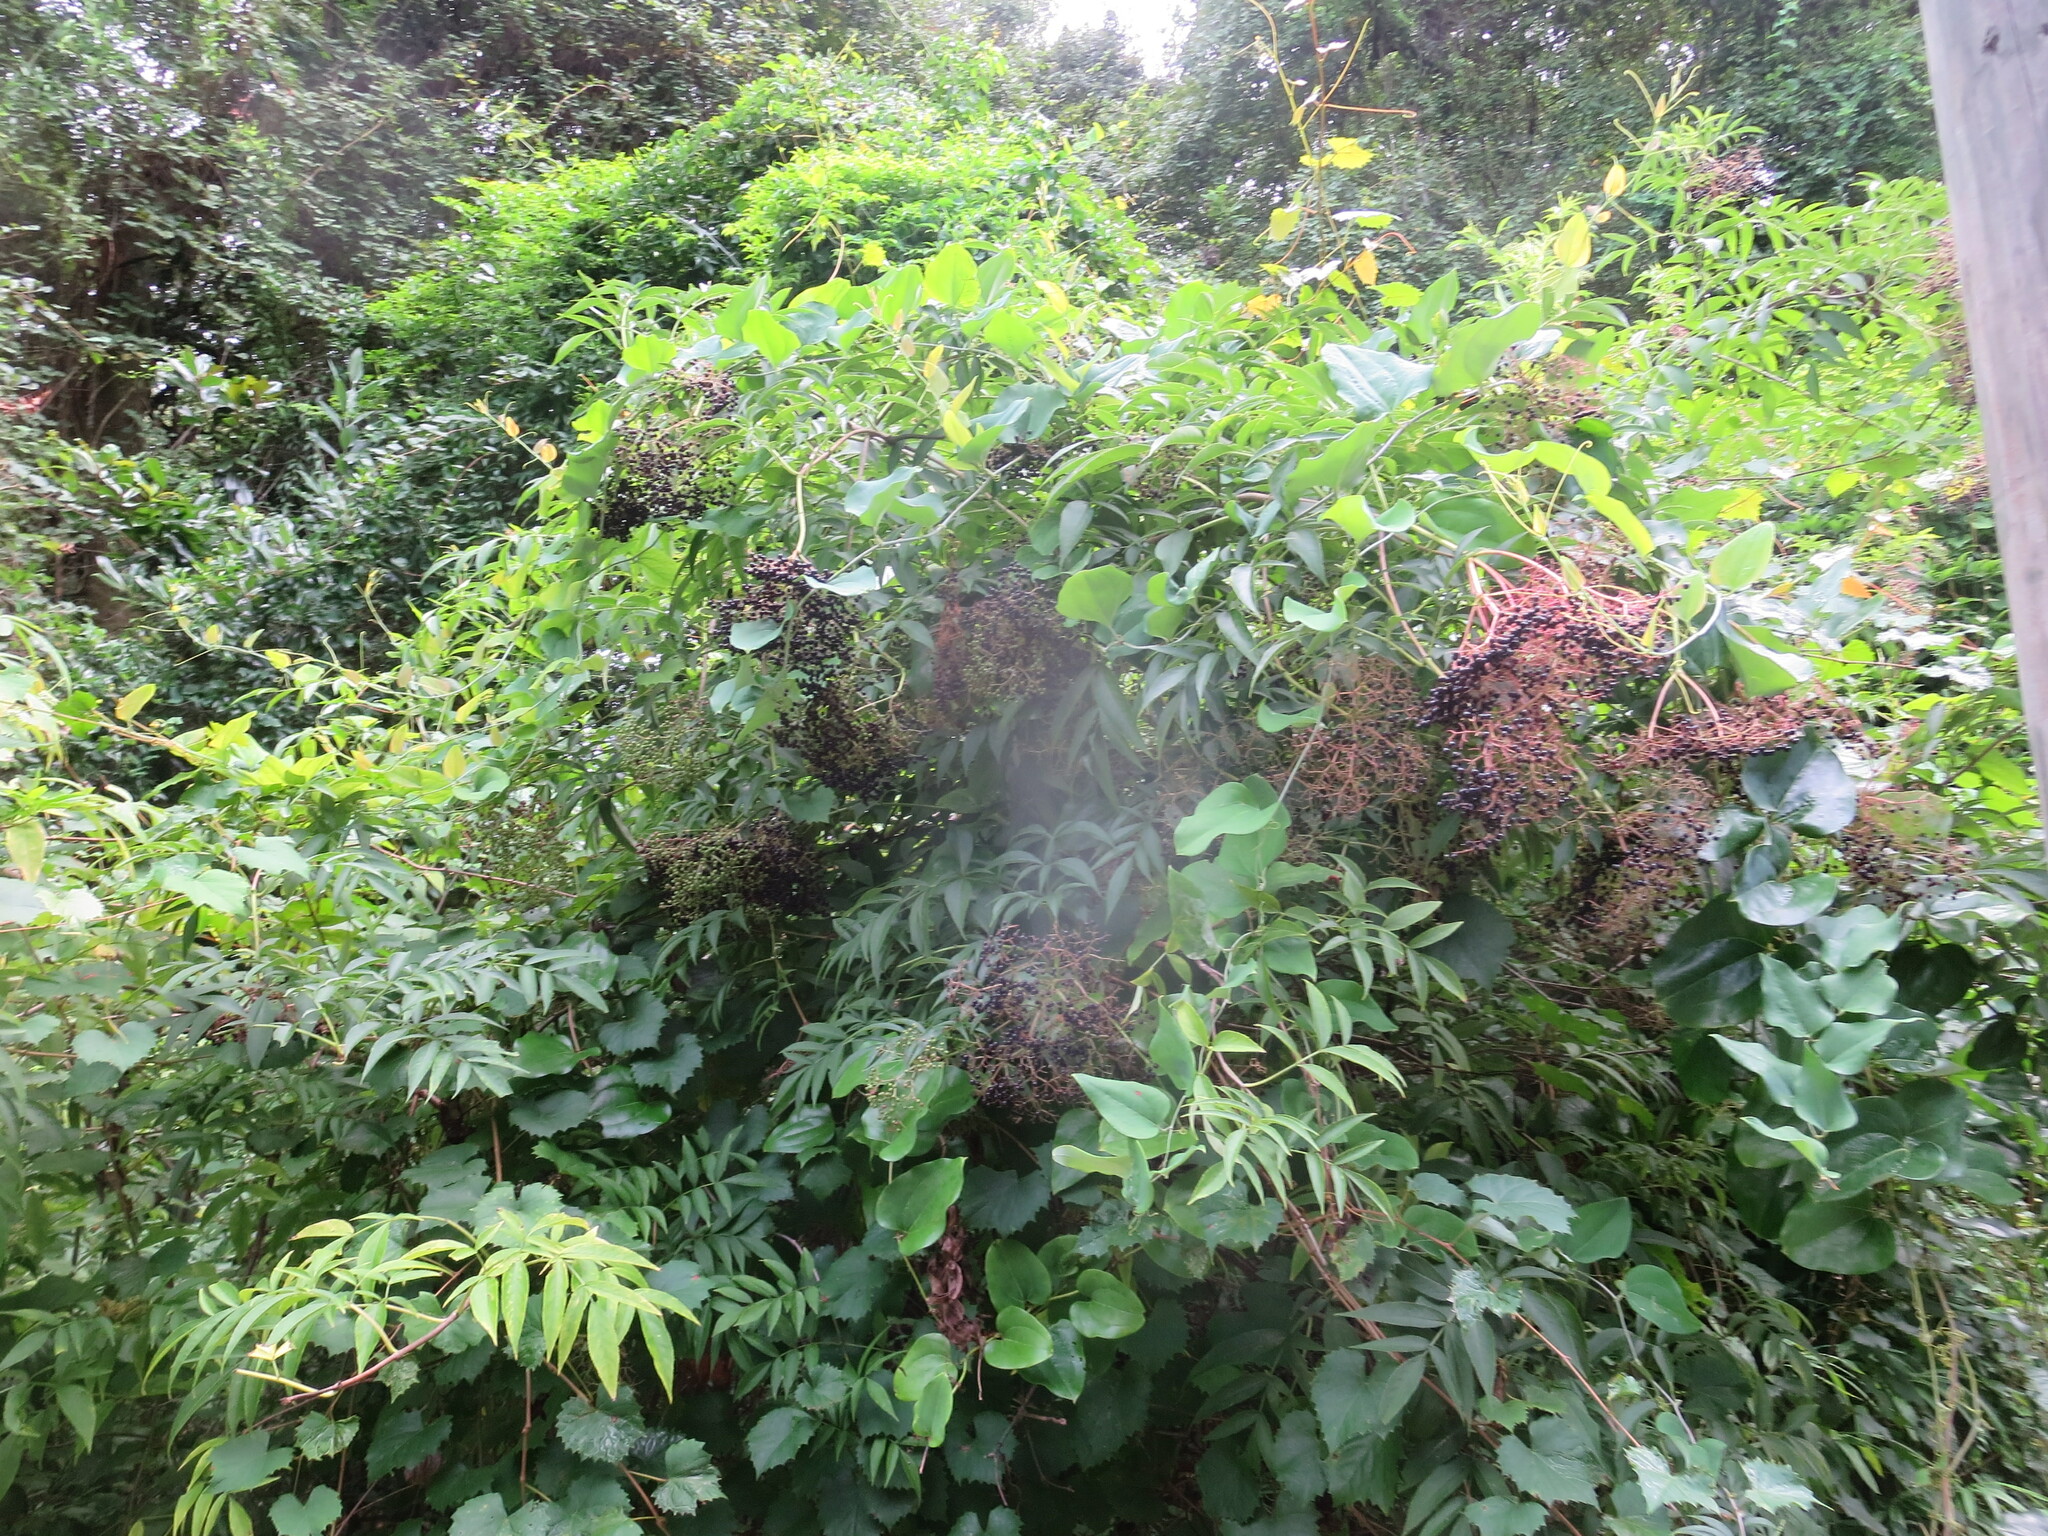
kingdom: Plantae
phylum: Tracheophyta
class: Magnoliopsida
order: Dipsacales
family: Viburnaceae
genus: Sambucus
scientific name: Sambucus canadensis
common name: American elder
